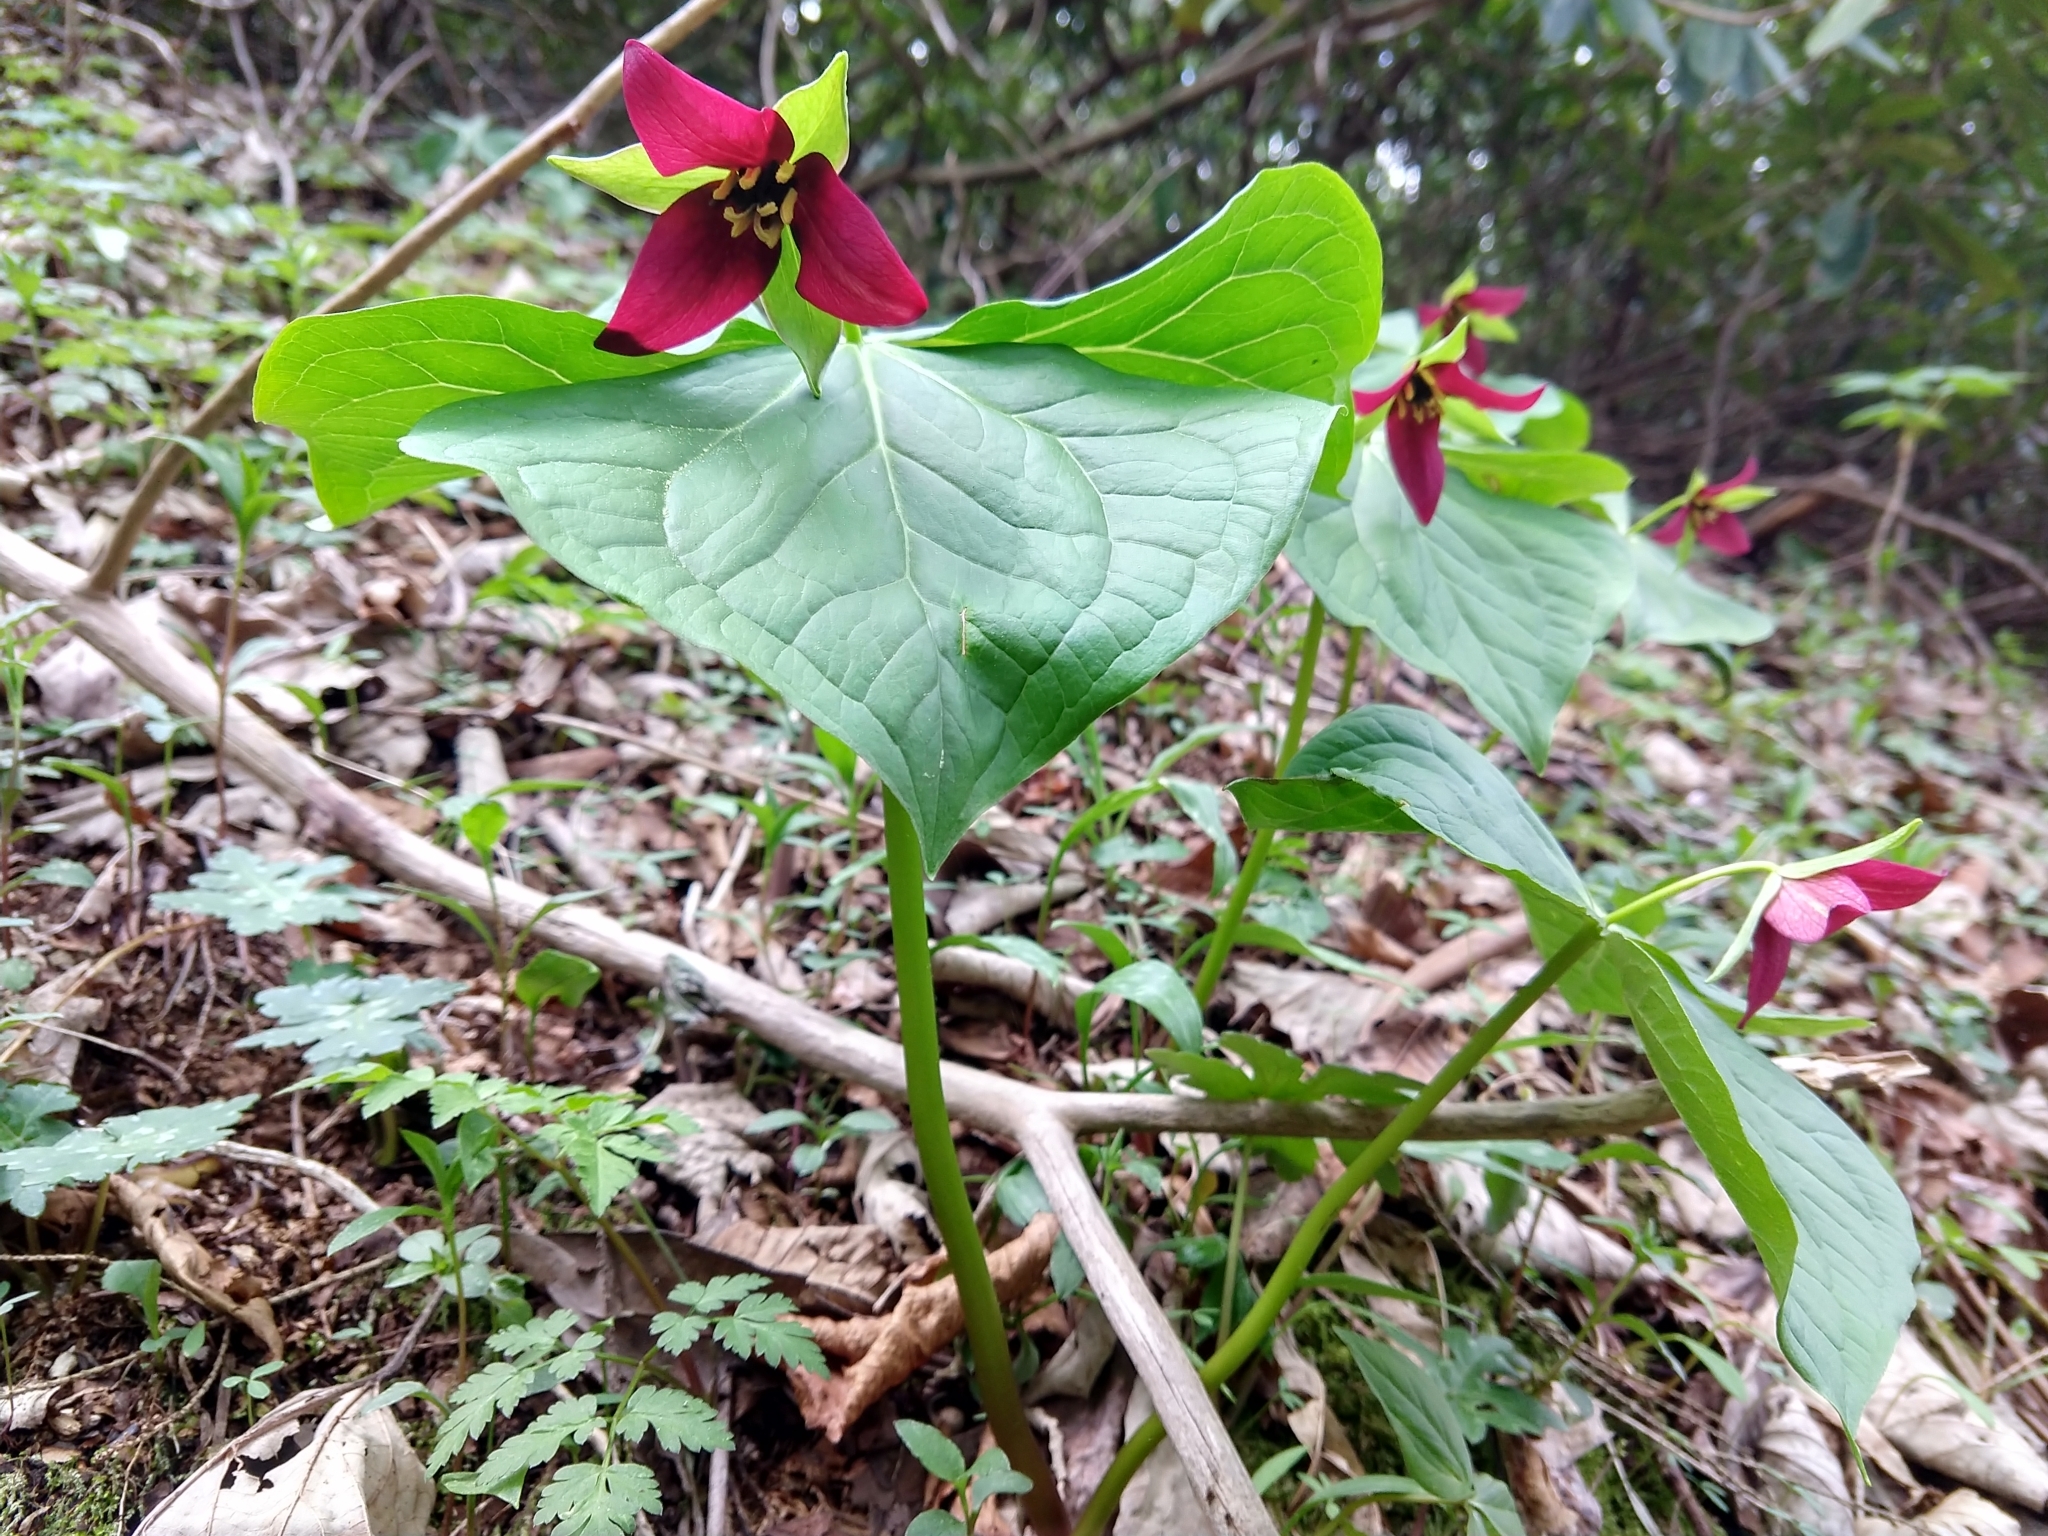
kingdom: Plantae
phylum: Tracheophyta
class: Liliopsida
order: Liliales
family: Melanthiaceae
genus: Trillium
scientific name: Trillium erectum
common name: Purple trillium
